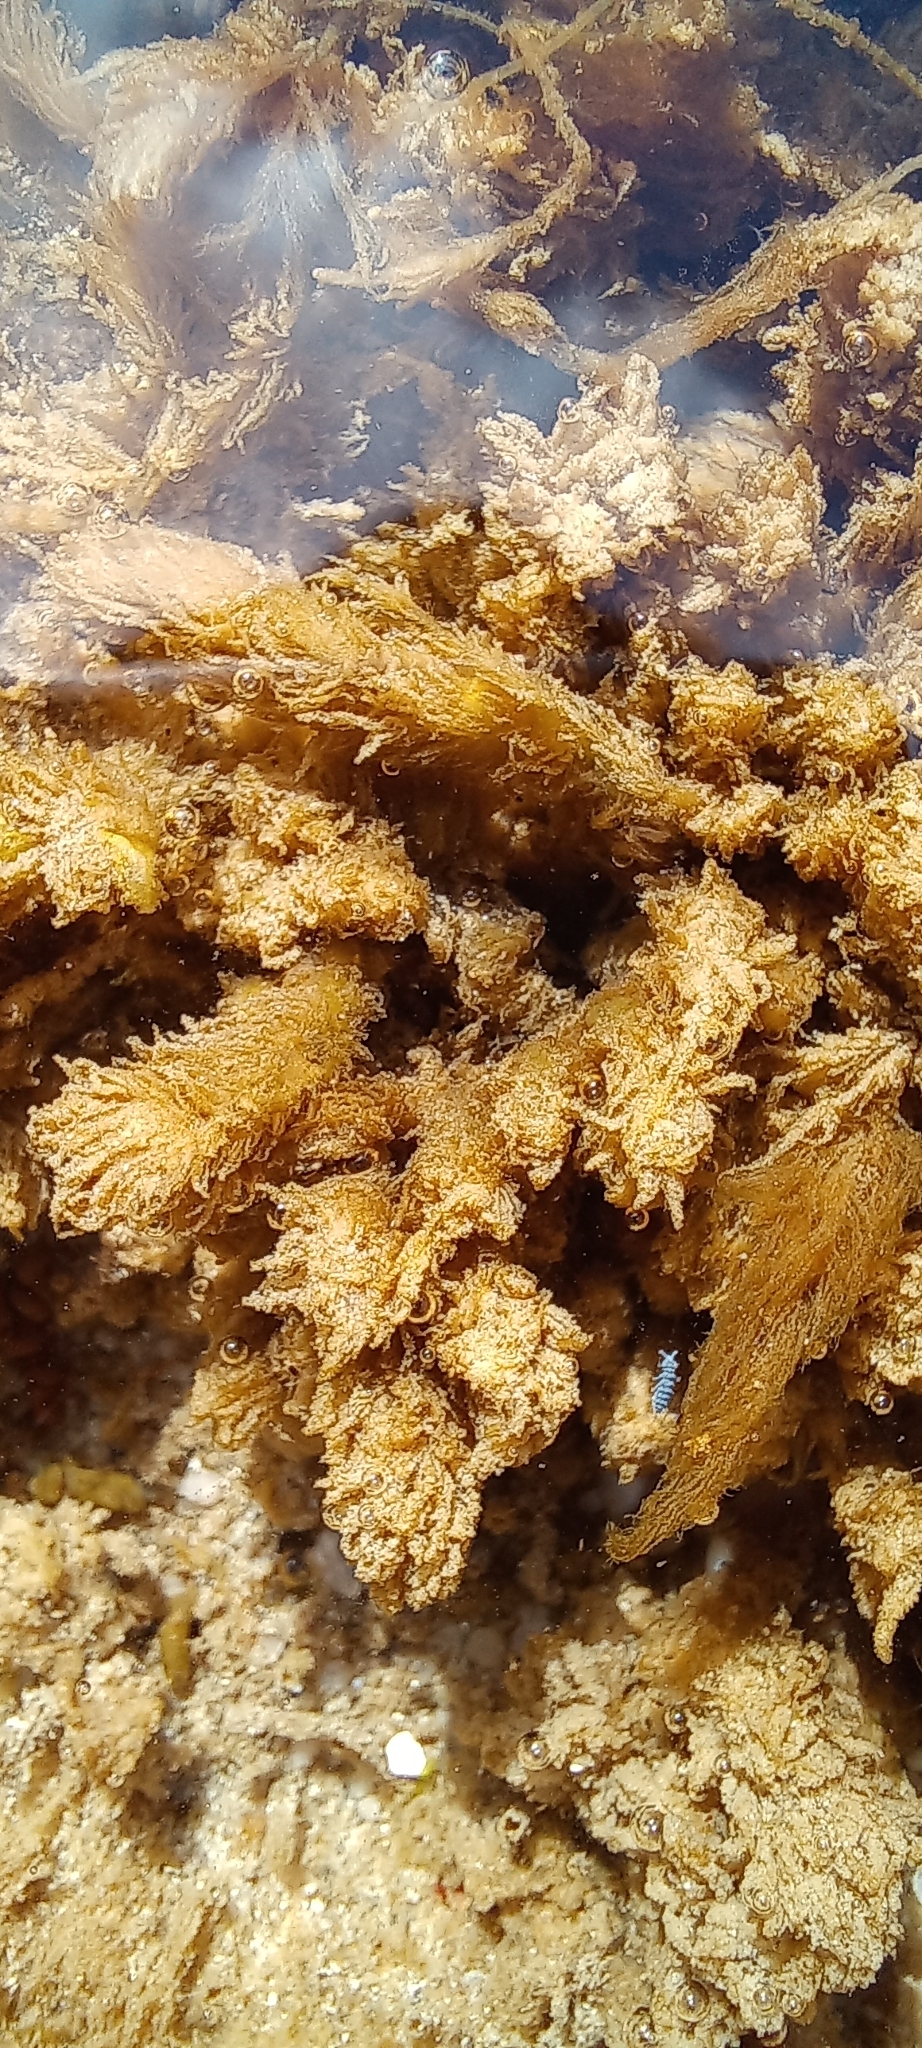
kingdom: Animalia
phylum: Arthropoda
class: Collembola
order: Poduromorpha
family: Neanuridae
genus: Anurida
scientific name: Anurida maritima
